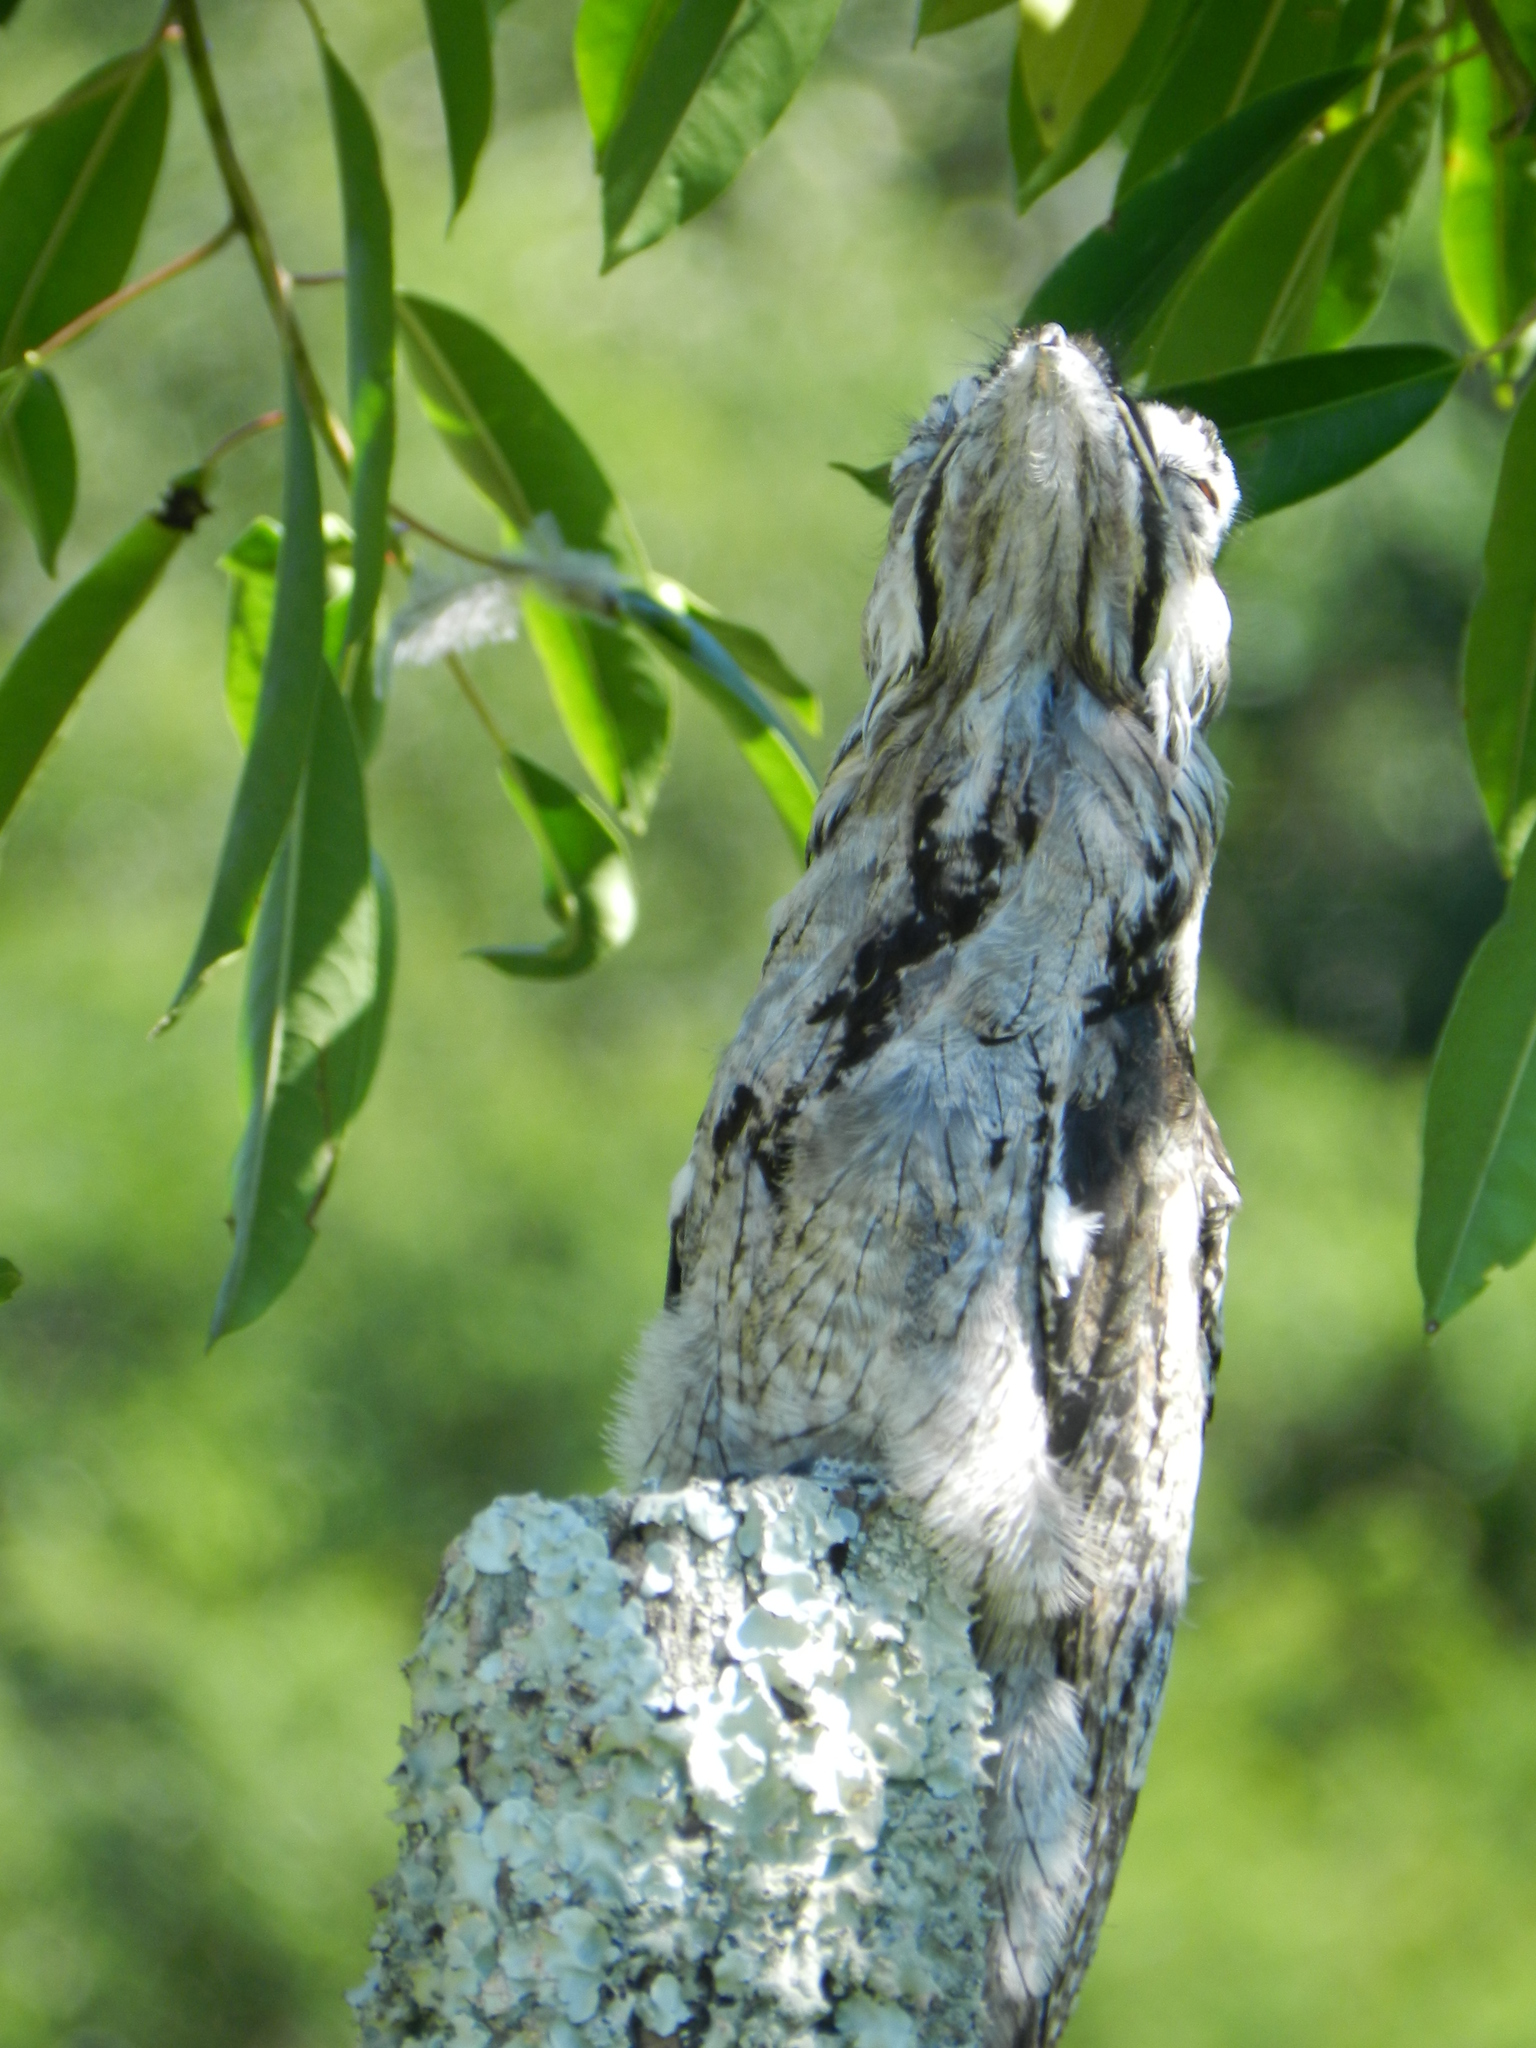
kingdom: Animalia
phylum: Chordata
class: Aves
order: Nyctibiiformes
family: Nyctibiidae
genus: Nyctibius
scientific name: Nyctibius griseus
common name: Common potoo
